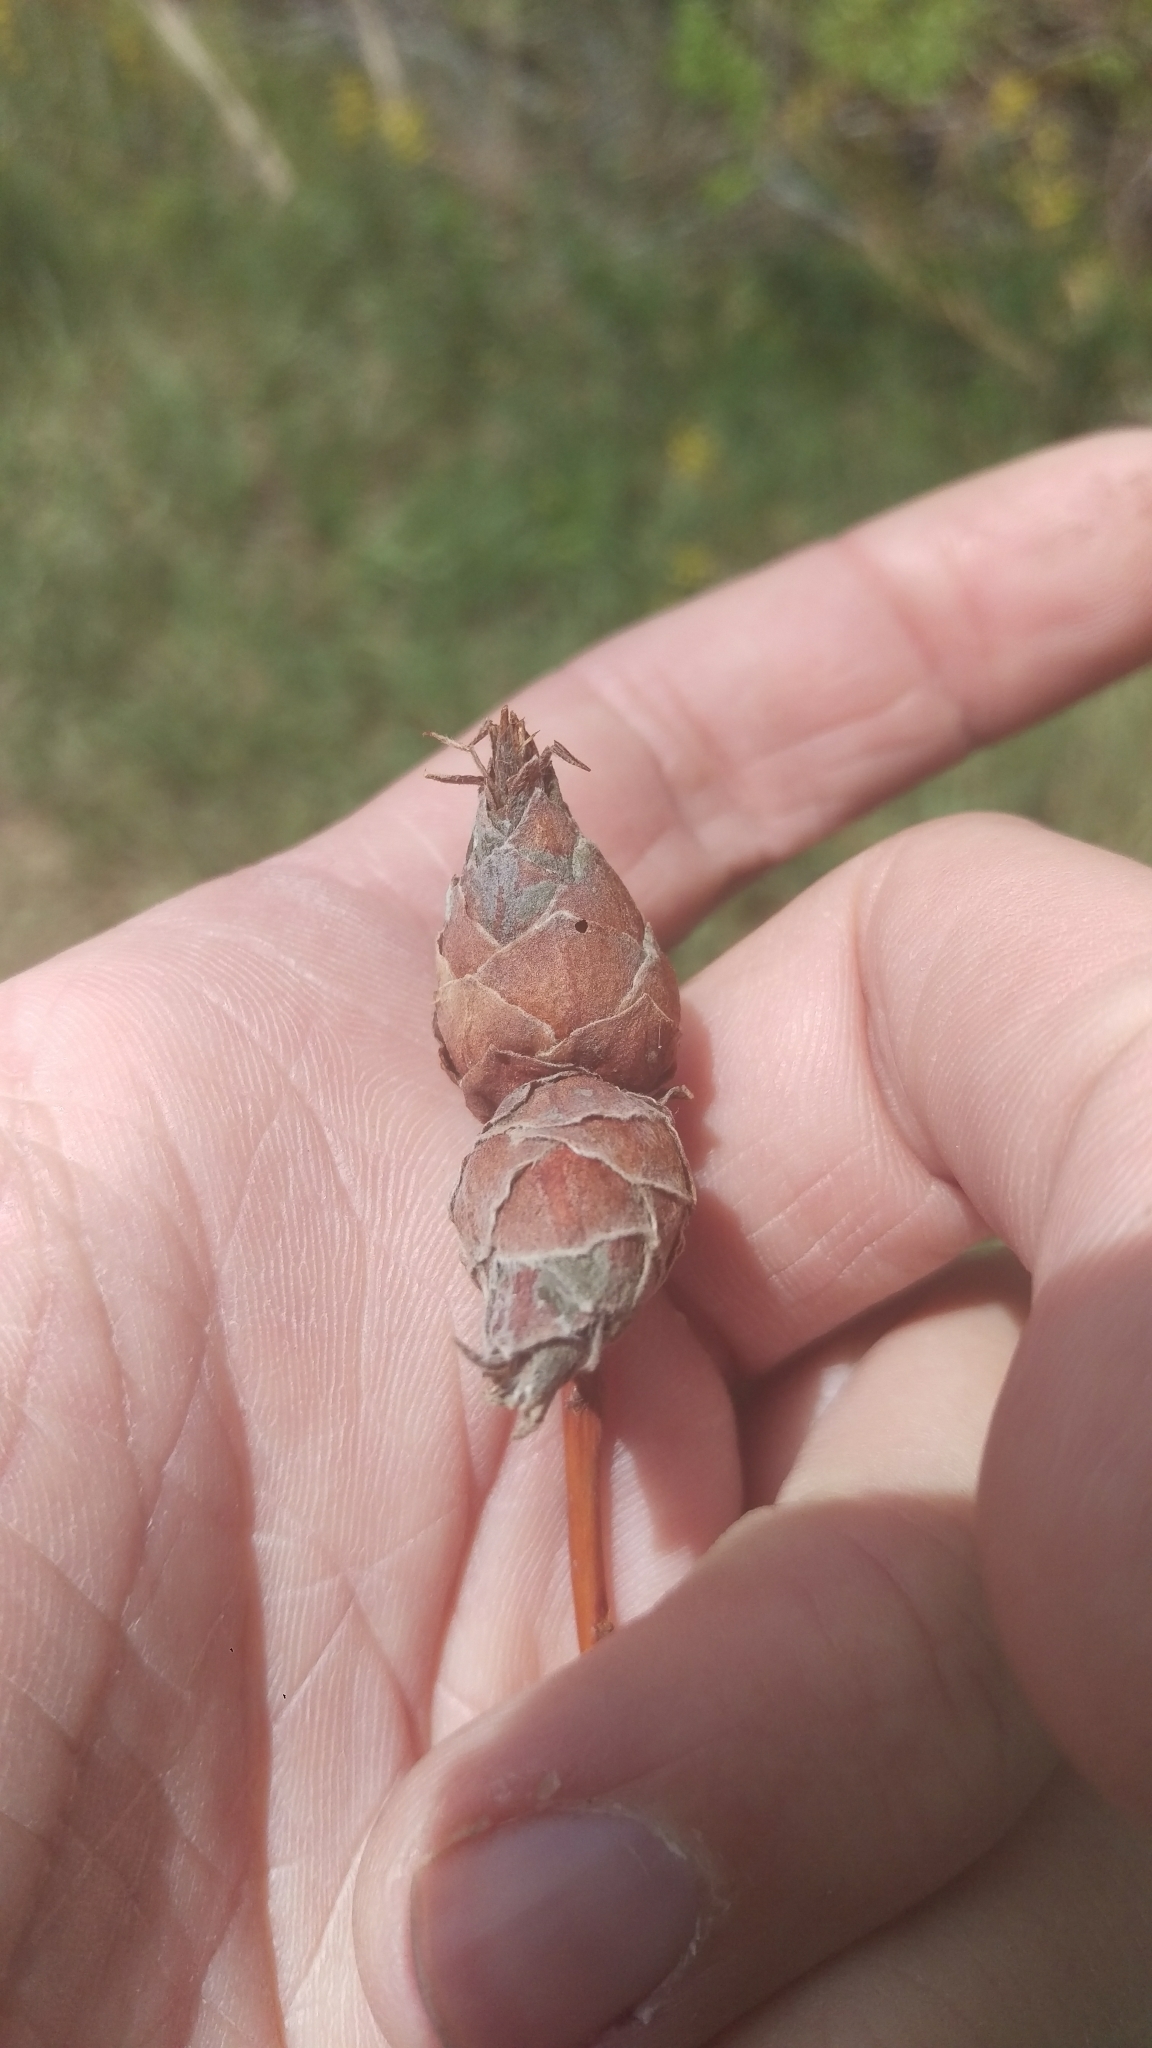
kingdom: Animalia
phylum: Arthropoda
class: Insecta
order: Diptera
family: Cecidomyiidae
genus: Rabdophaga
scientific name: Rabdophaga strobiloides
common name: Willow pinecone gall midge
